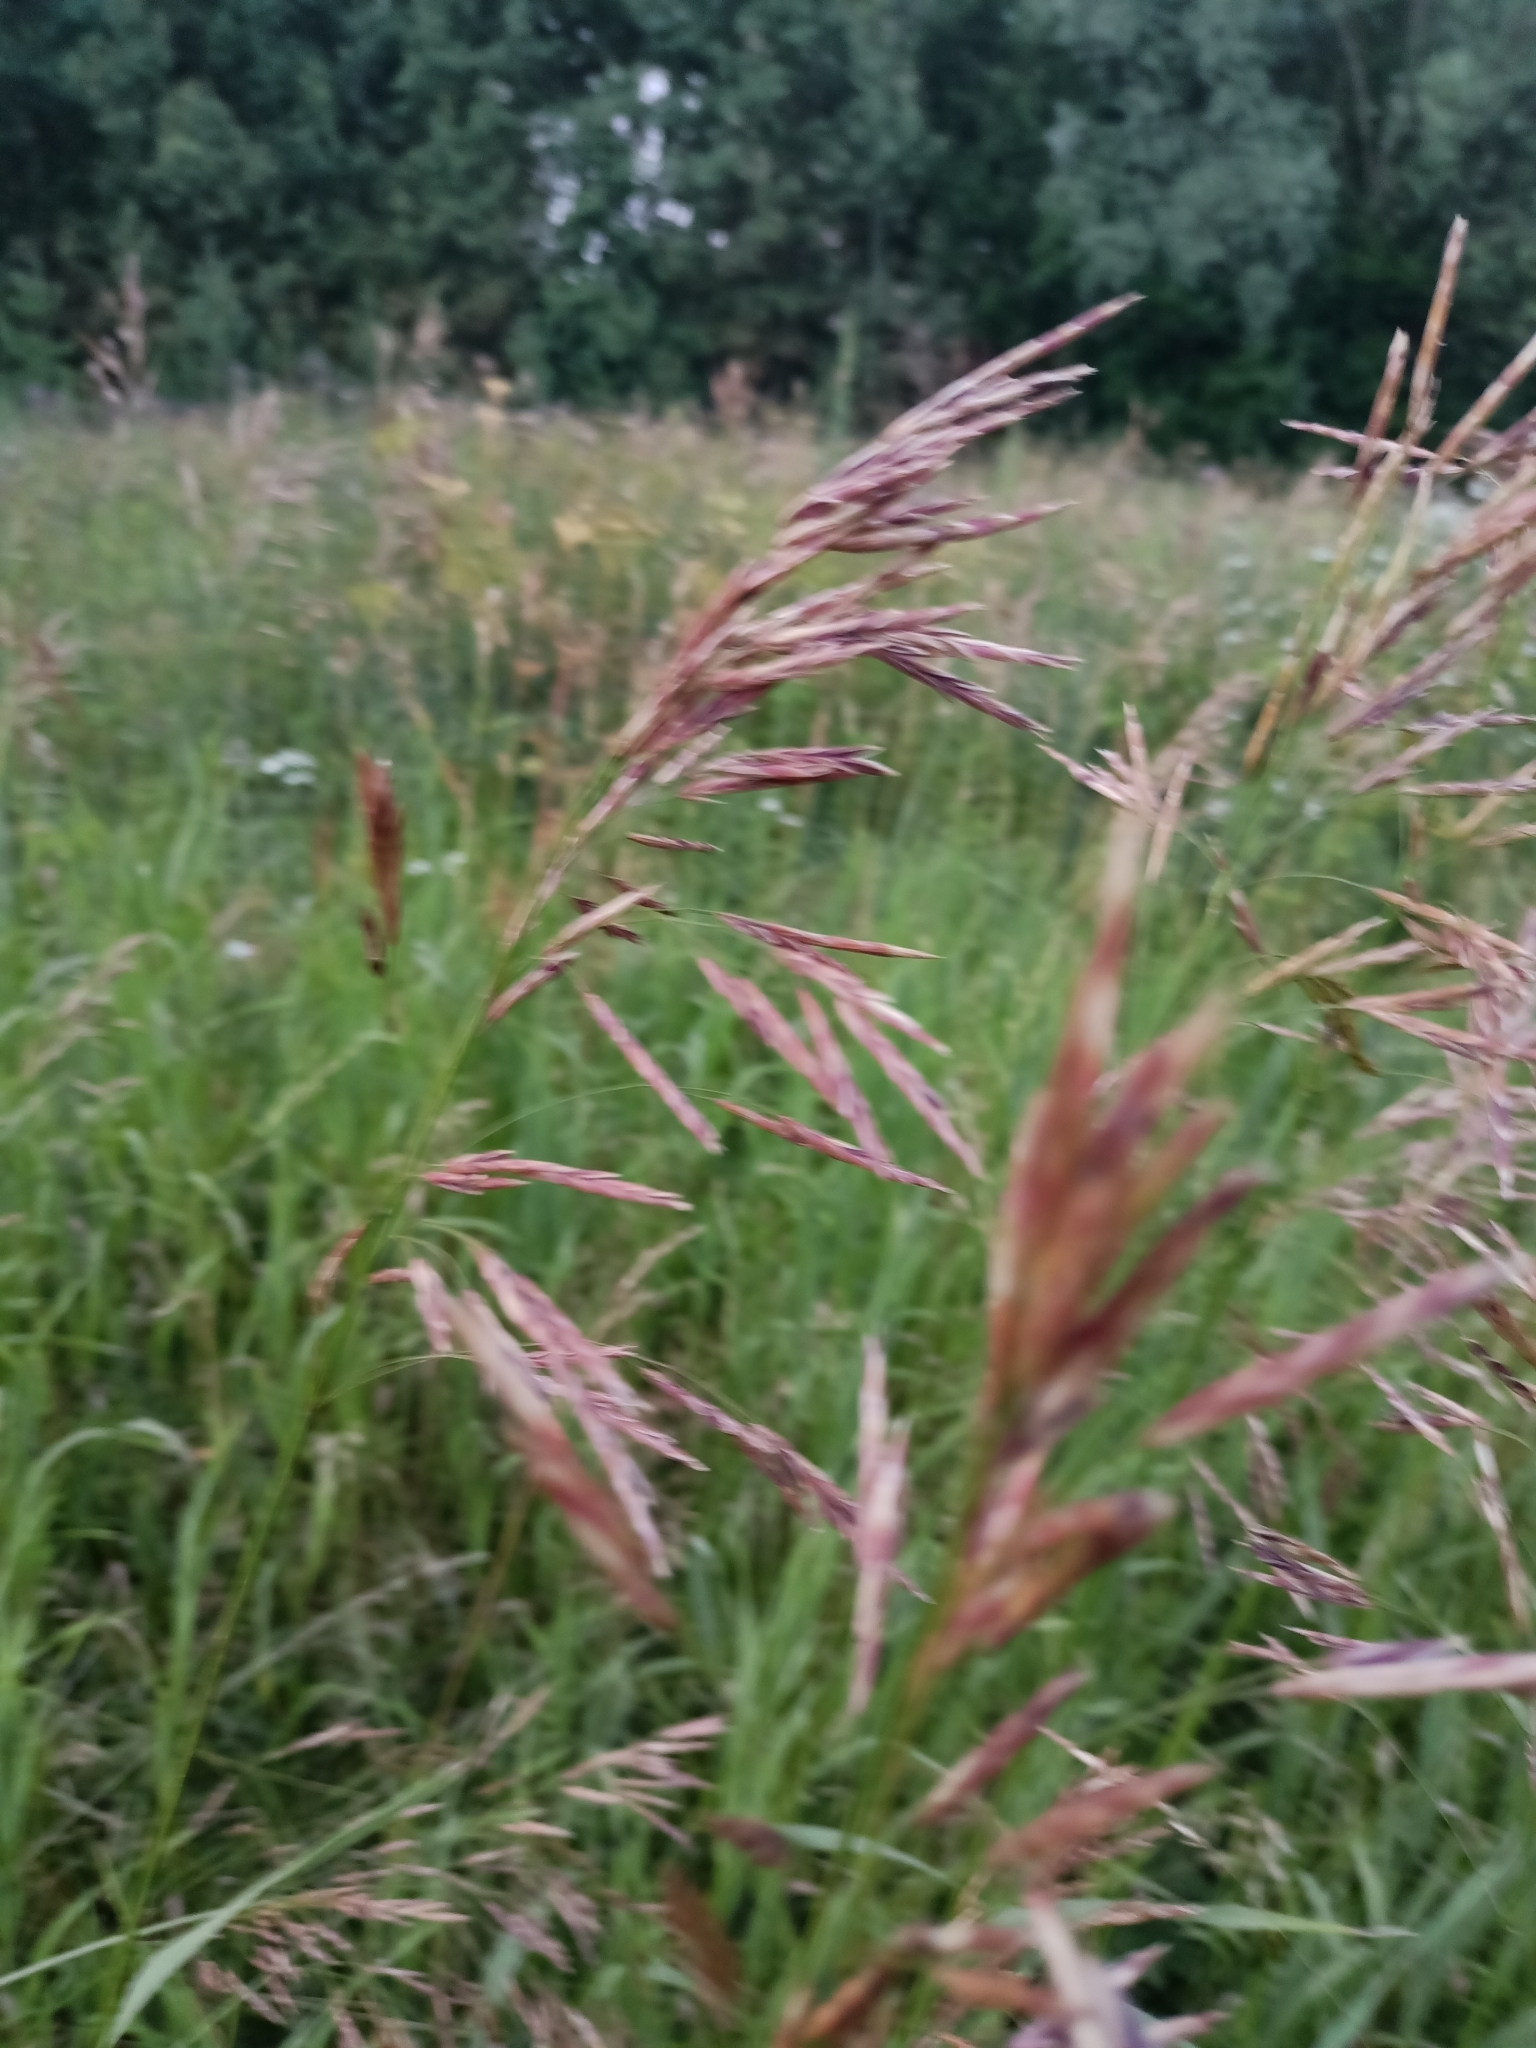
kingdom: Plantae
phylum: Tracheophyta
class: Liliopsida
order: Poales
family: Poaceae
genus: Bromus
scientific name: Bromus inermis
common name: Smooth brome
